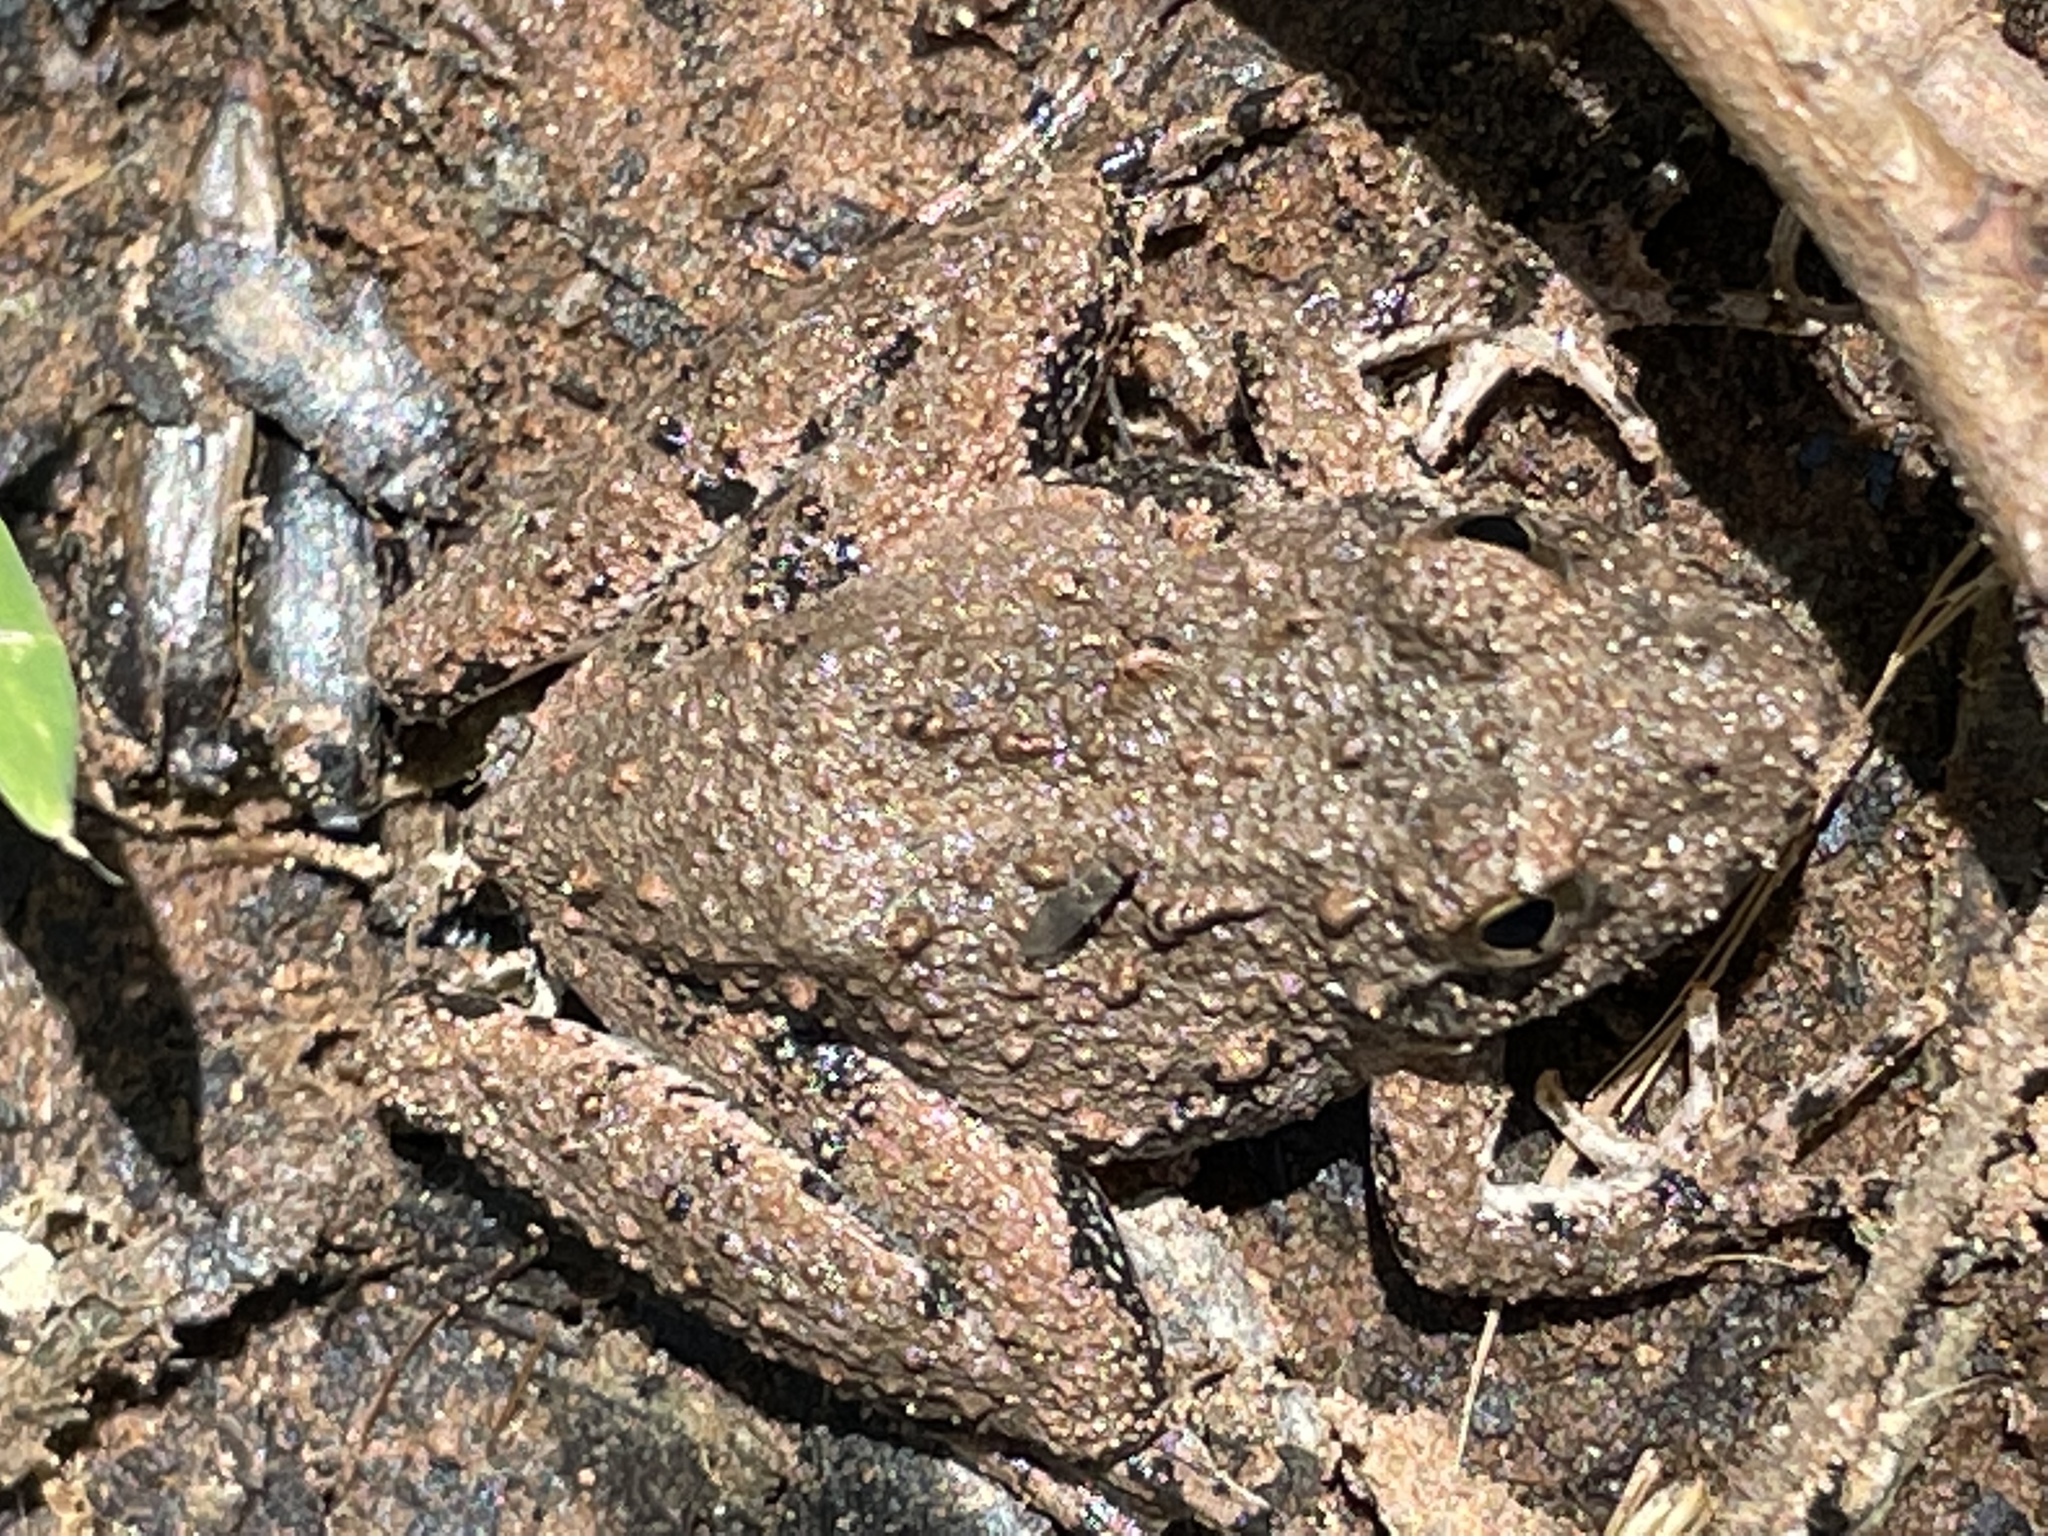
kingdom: Animalia
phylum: Chordata
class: Amphibia
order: Anura
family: Hylidae
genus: Acris
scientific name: Acris blanchardi
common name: Blanchard's cricket frog
